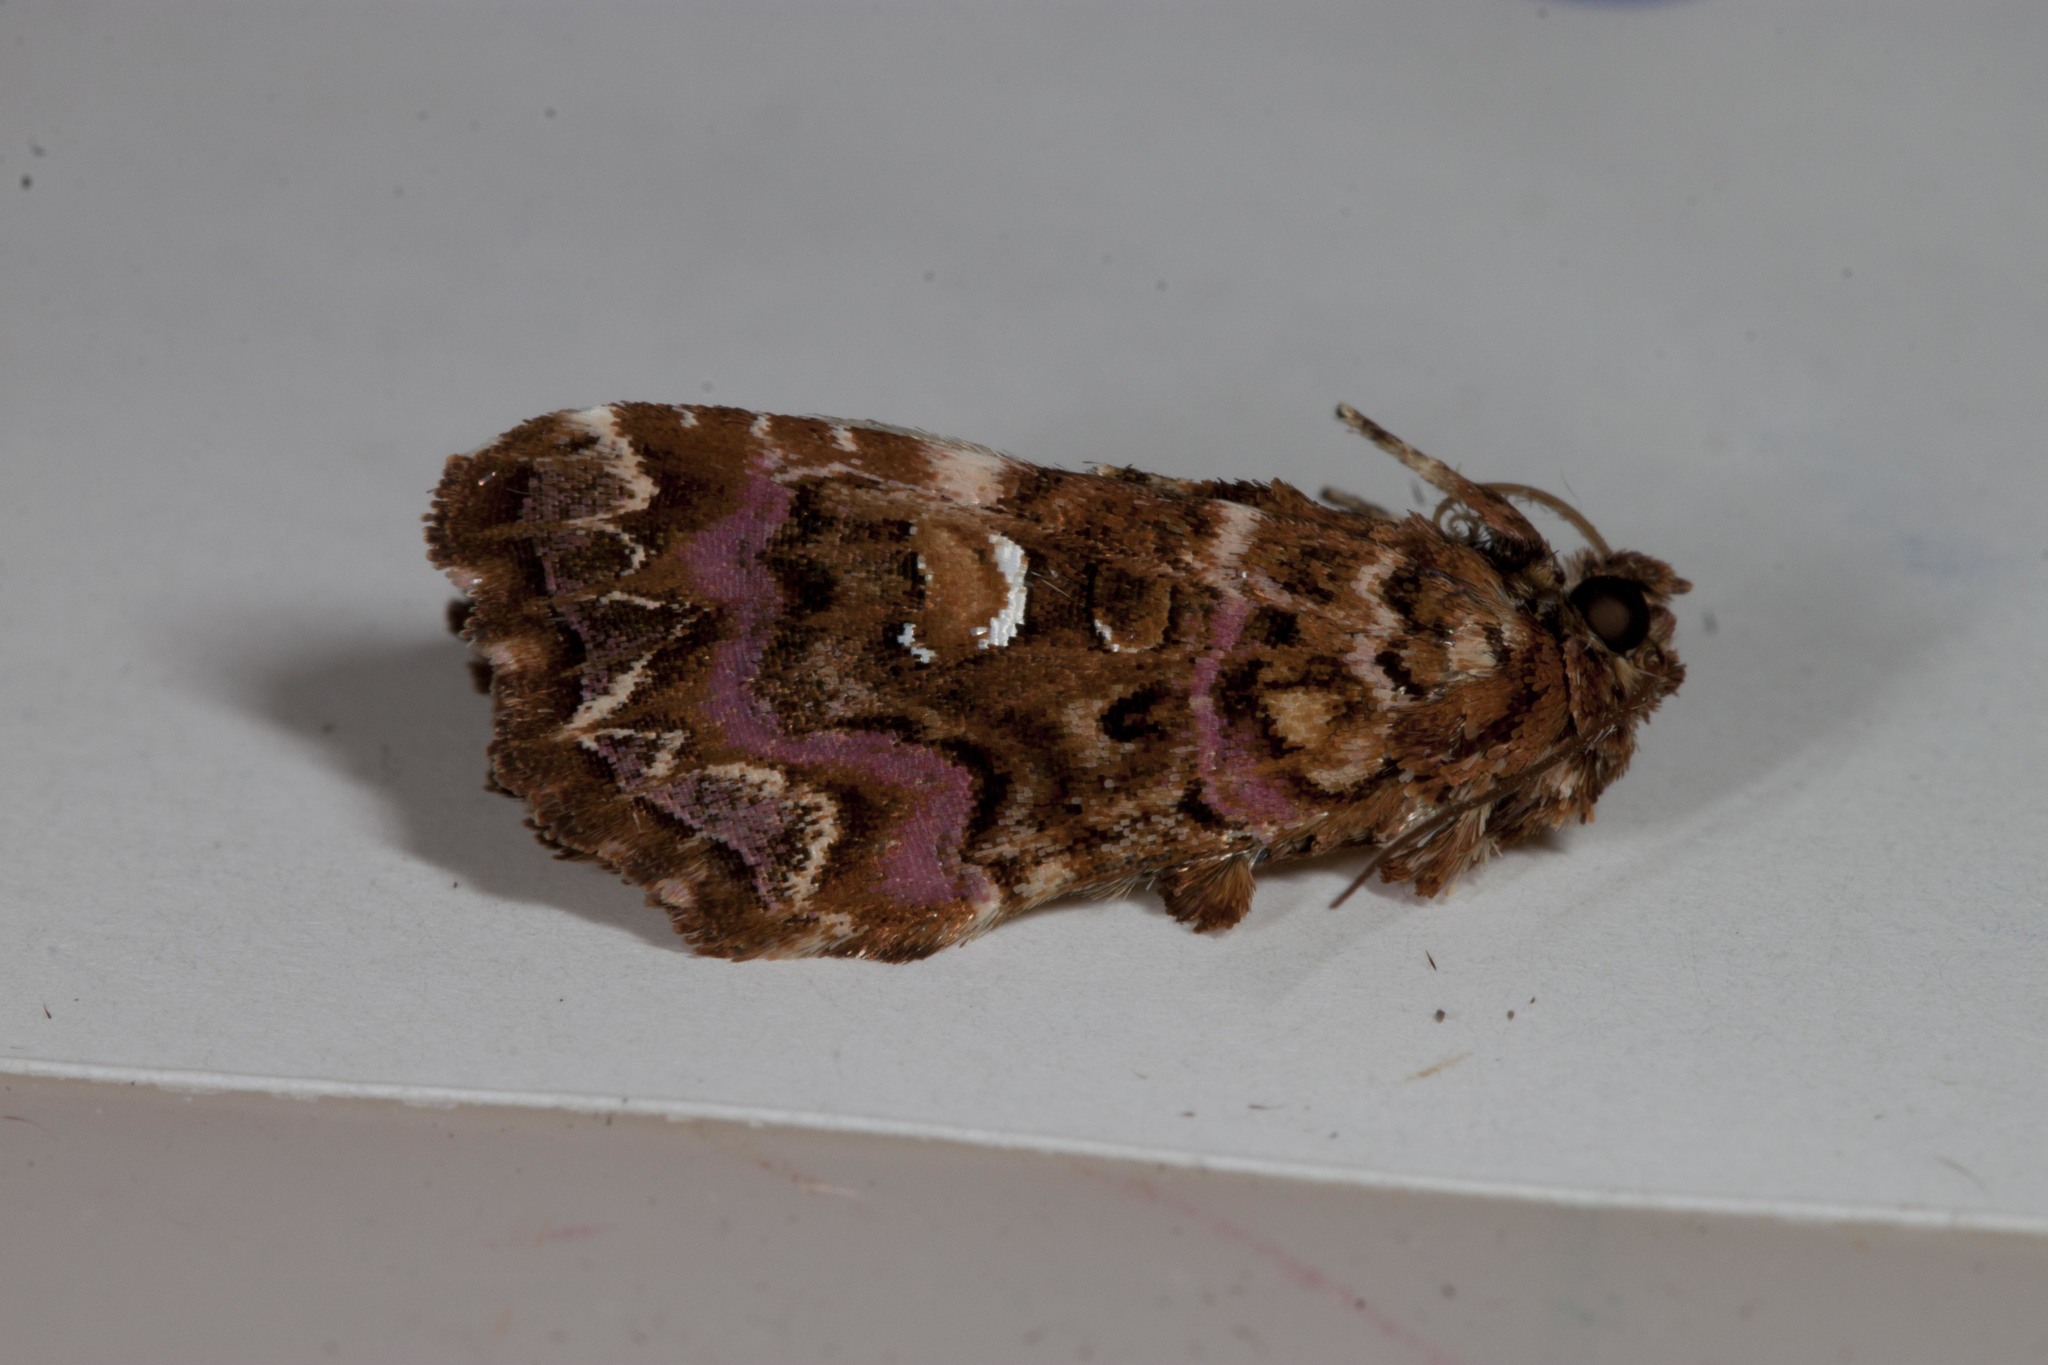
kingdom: Animalia
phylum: Arthropoda
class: Insecta
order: Lepidoptera
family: Noctuidae
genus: Callopistria
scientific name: Callopistria mollissima
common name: Pink-shaded fern moth
